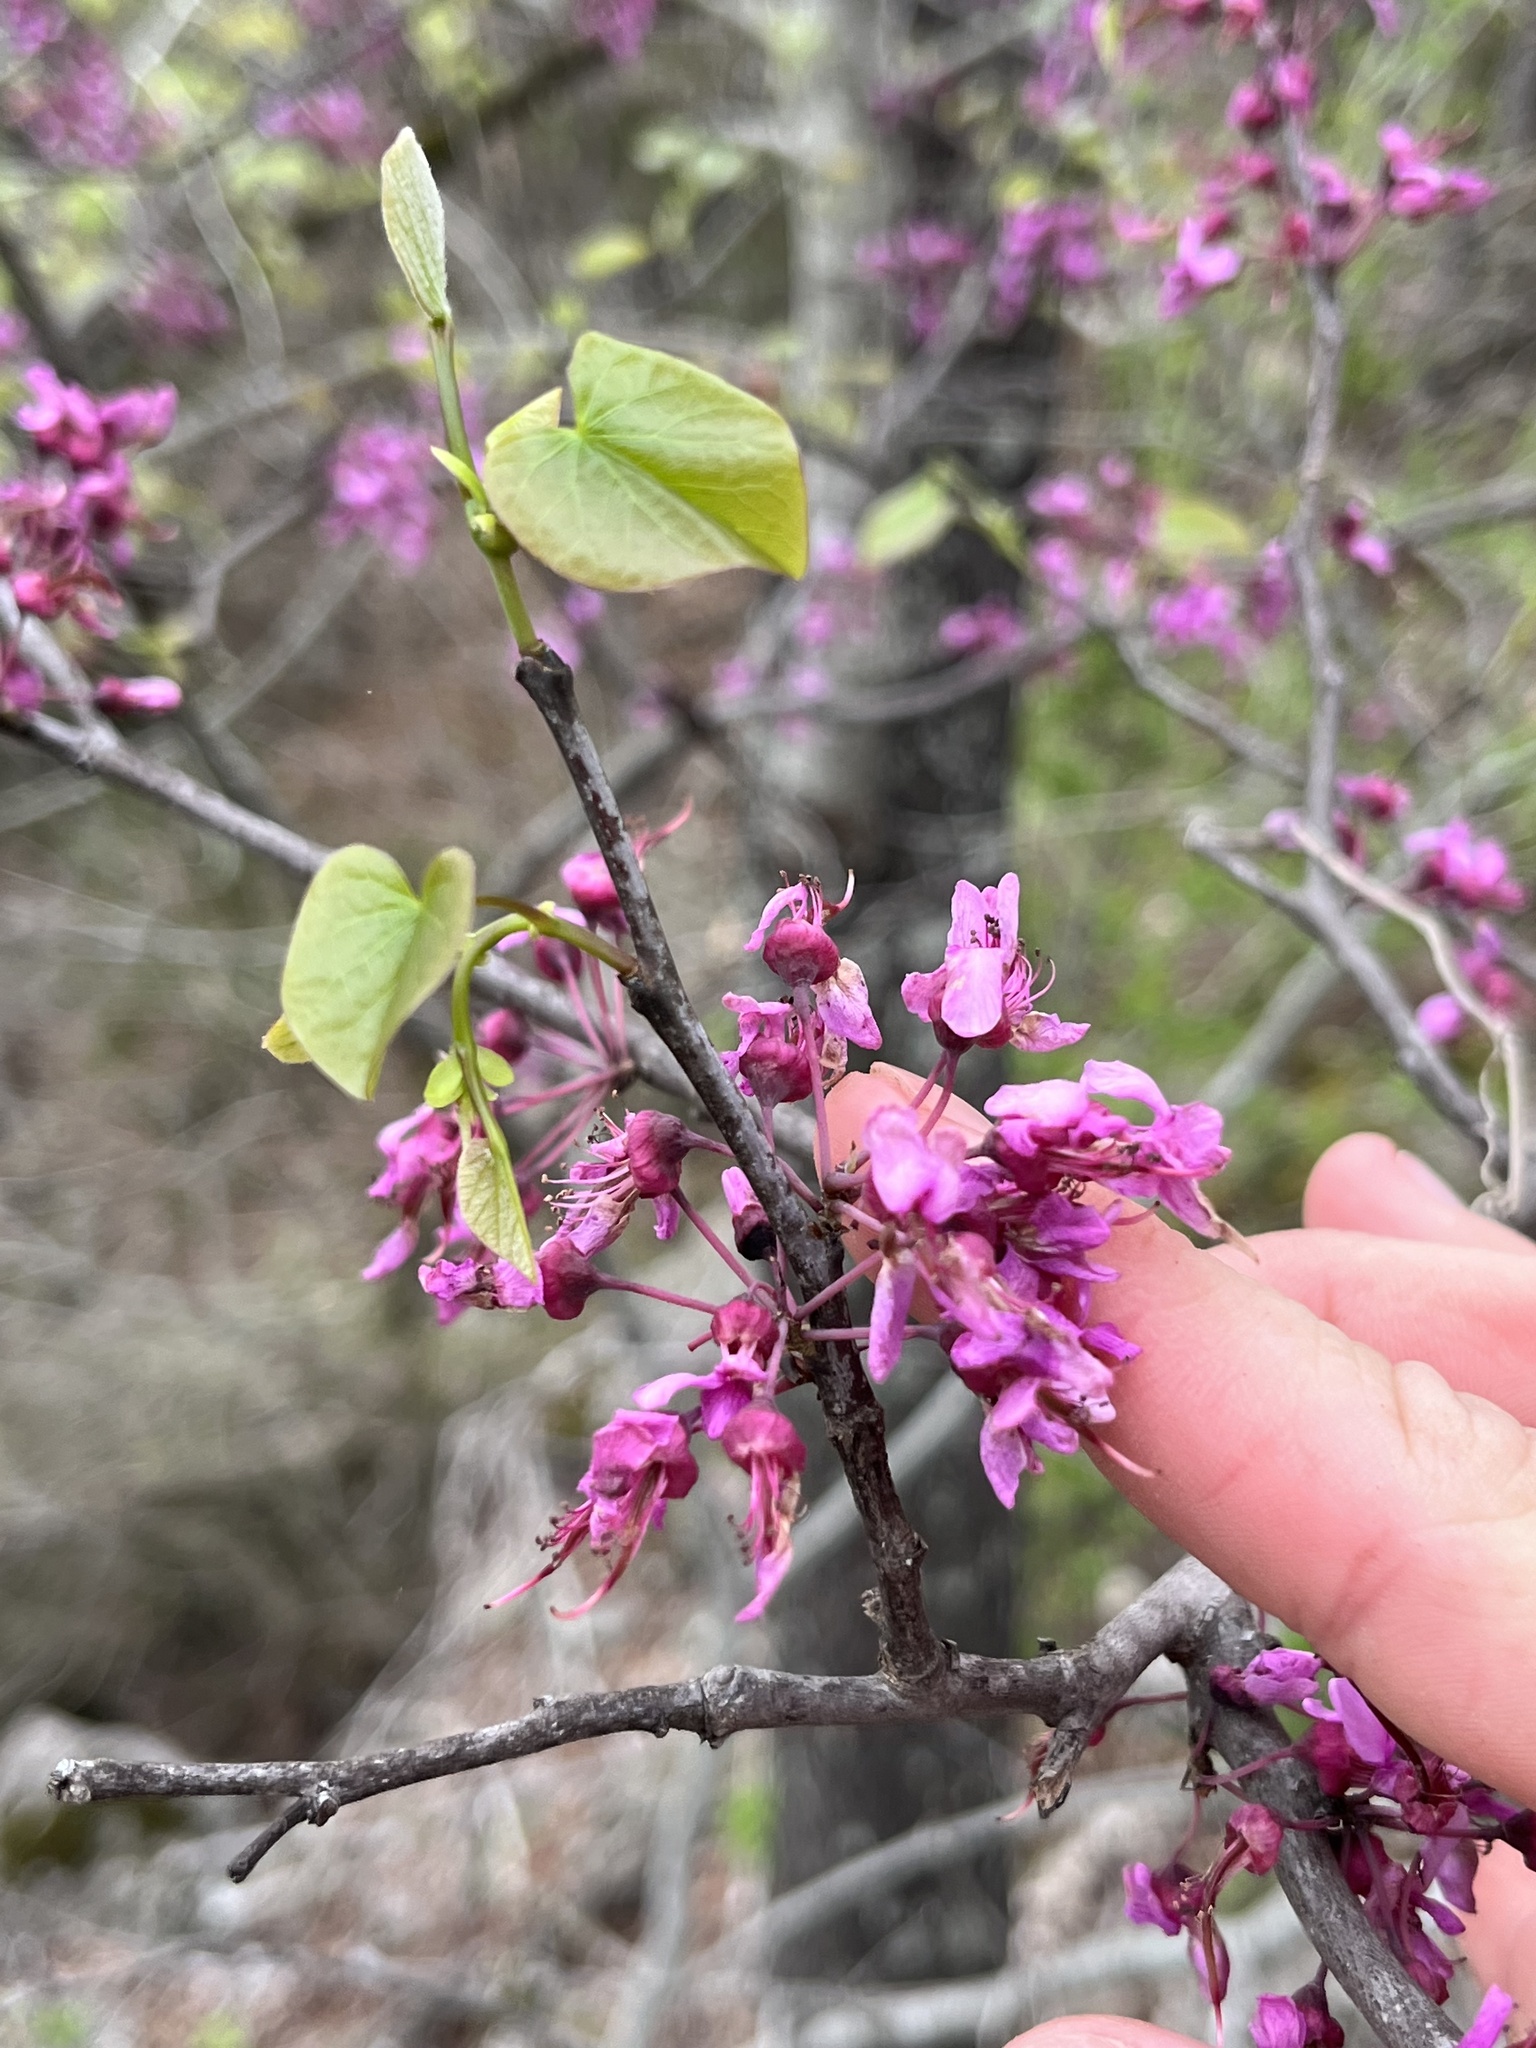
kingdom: Plantae
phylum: Tracheophyta
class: Magnoliopsida
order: Fabales
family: Fabaceae
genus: Cercis
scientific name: Cercis canadensis
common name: Eastern redbud
